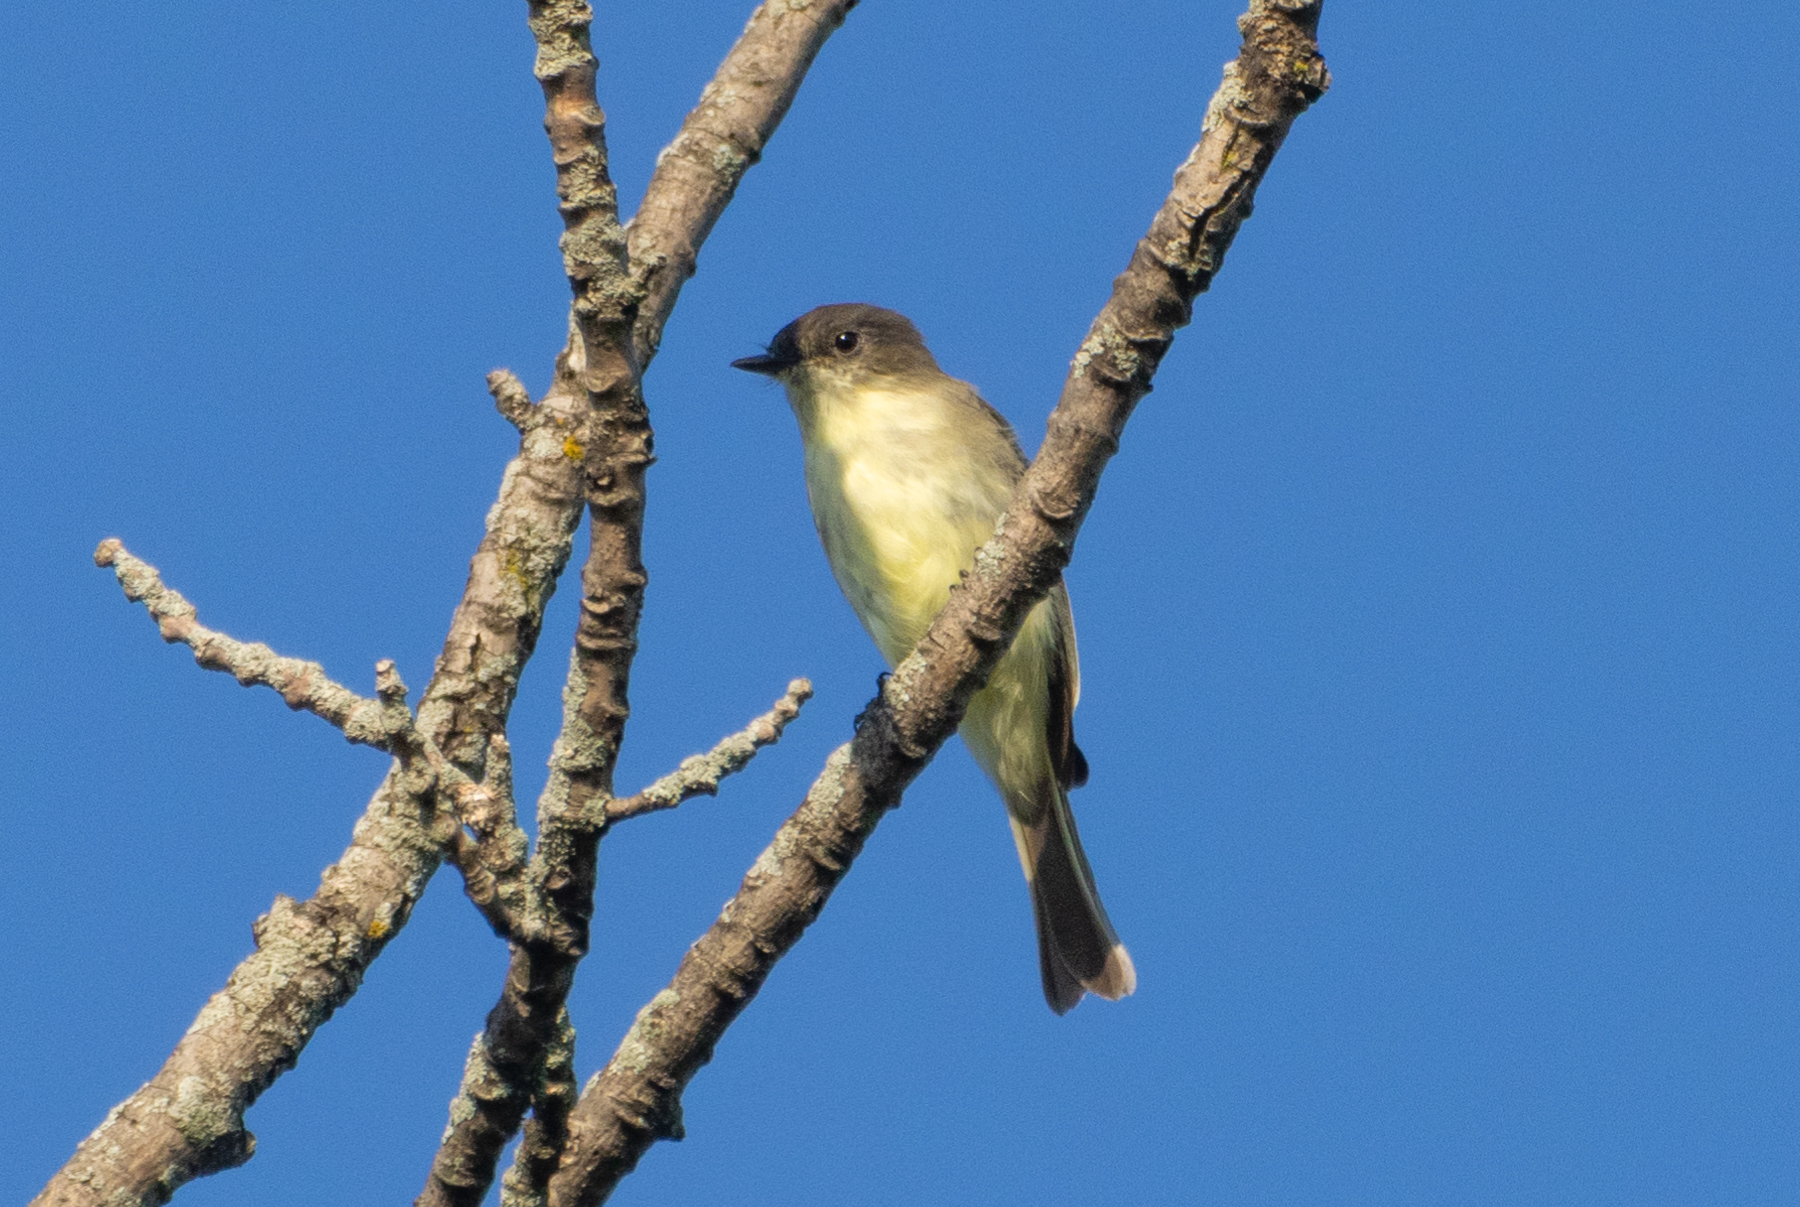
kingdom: Animalia
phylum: Chordata
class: Aves
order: Passeriformes
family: Tyrannidae
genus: Sayornis
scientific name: Sayornis phoebe
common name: Eastern phoebe
